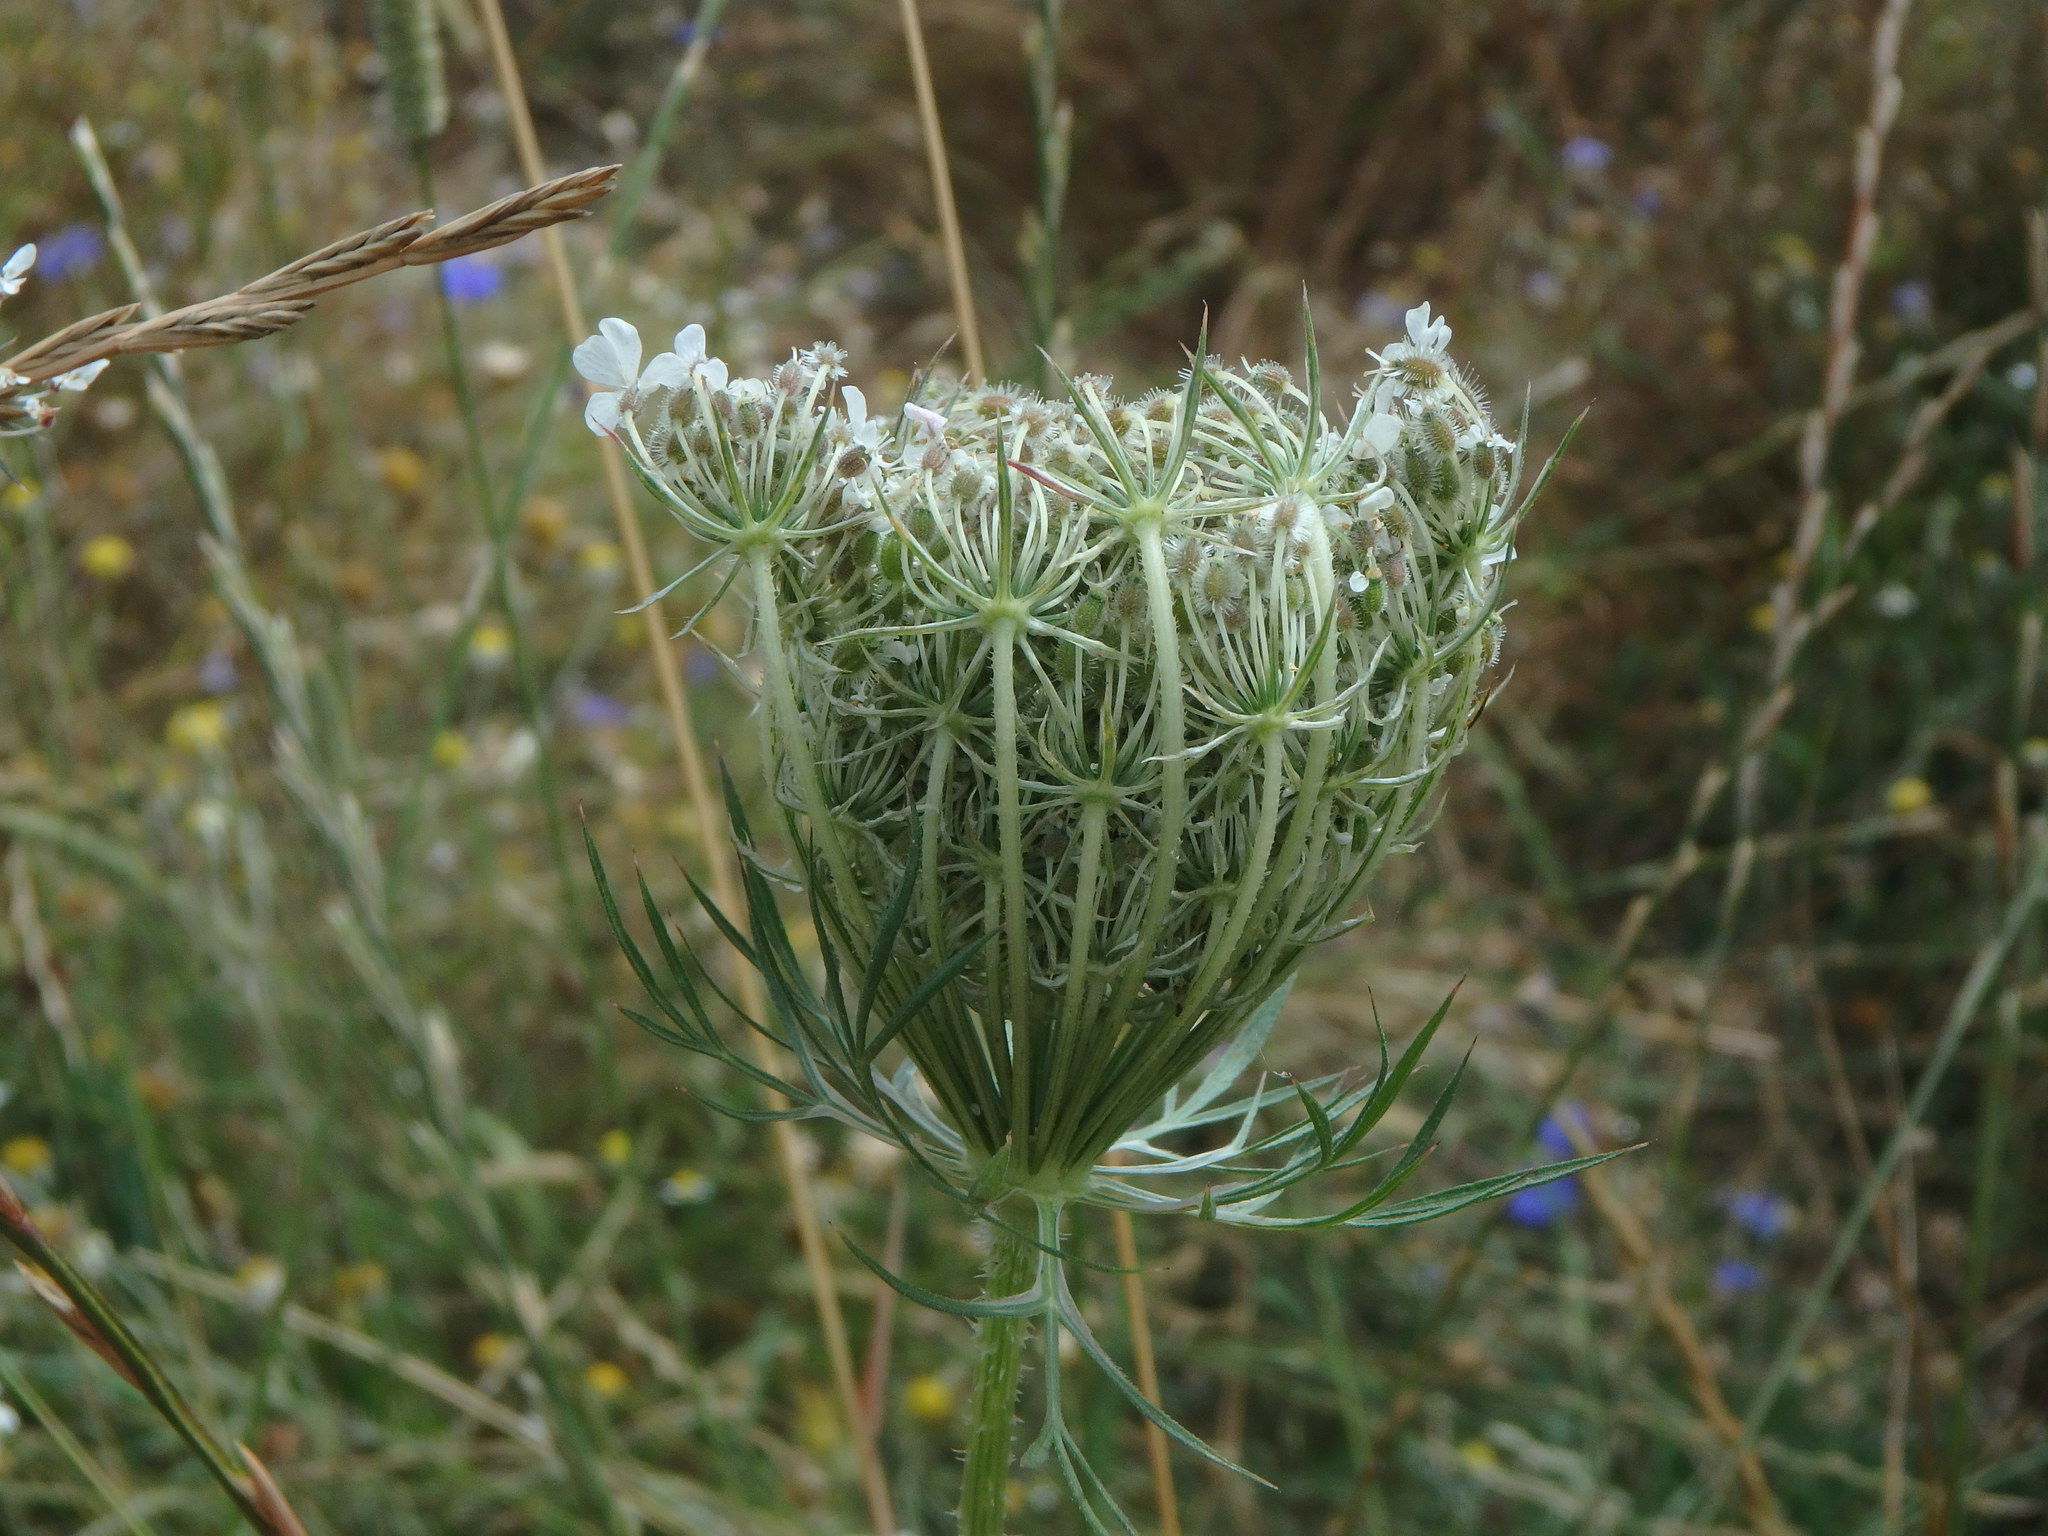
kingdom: Plantae
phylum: Tracheophyta
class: Magnoliopsida
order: Apiales
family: Apiaceae
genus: Daucus
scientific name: Daucus carota
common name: Wild carrot
